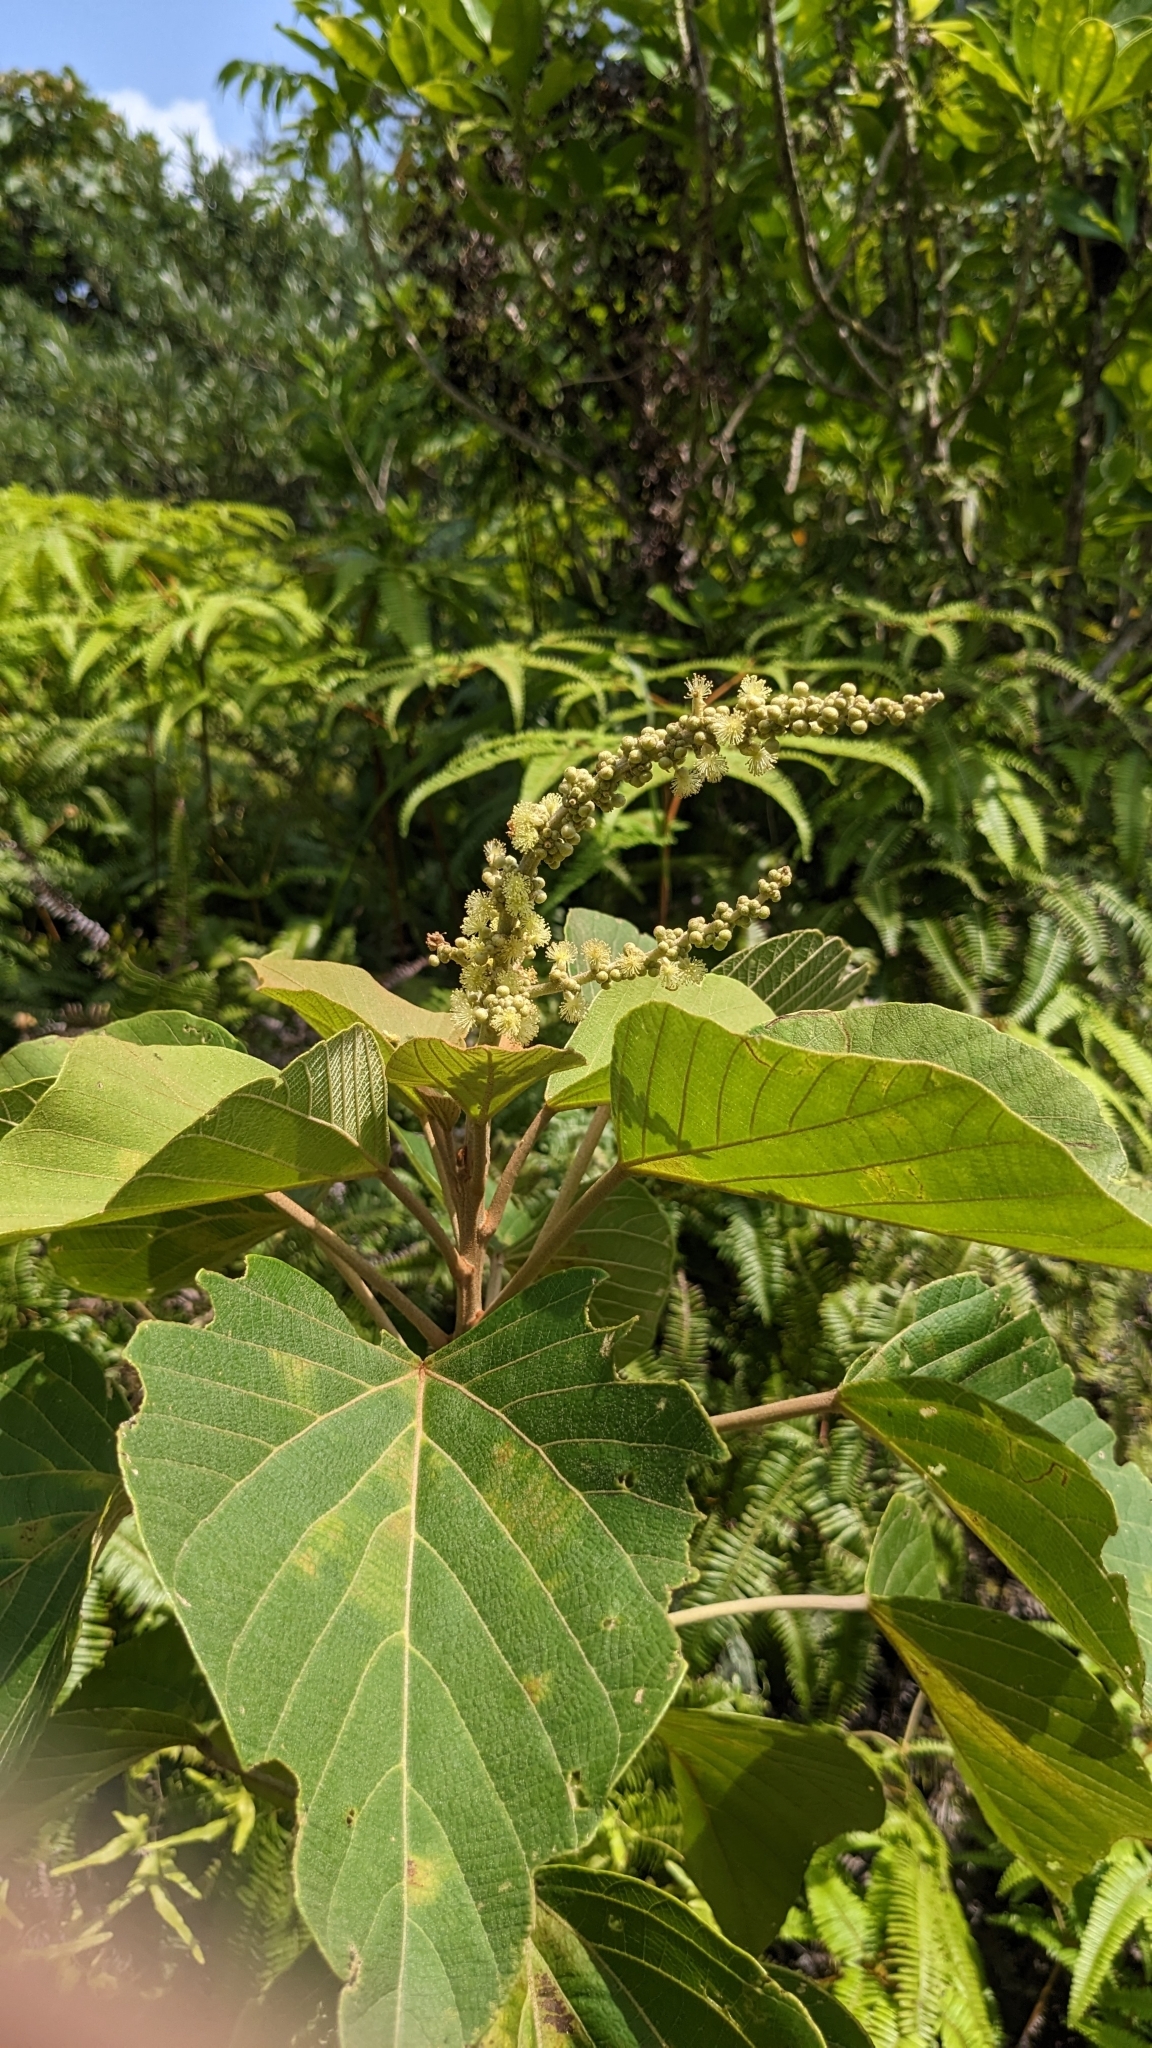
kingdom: Plantae
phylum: Tracheophyta
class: Magnoliopsida
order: Malpighiales
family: Euphorbiaceae
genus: Mallotus
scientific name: Mallotus japonicus
